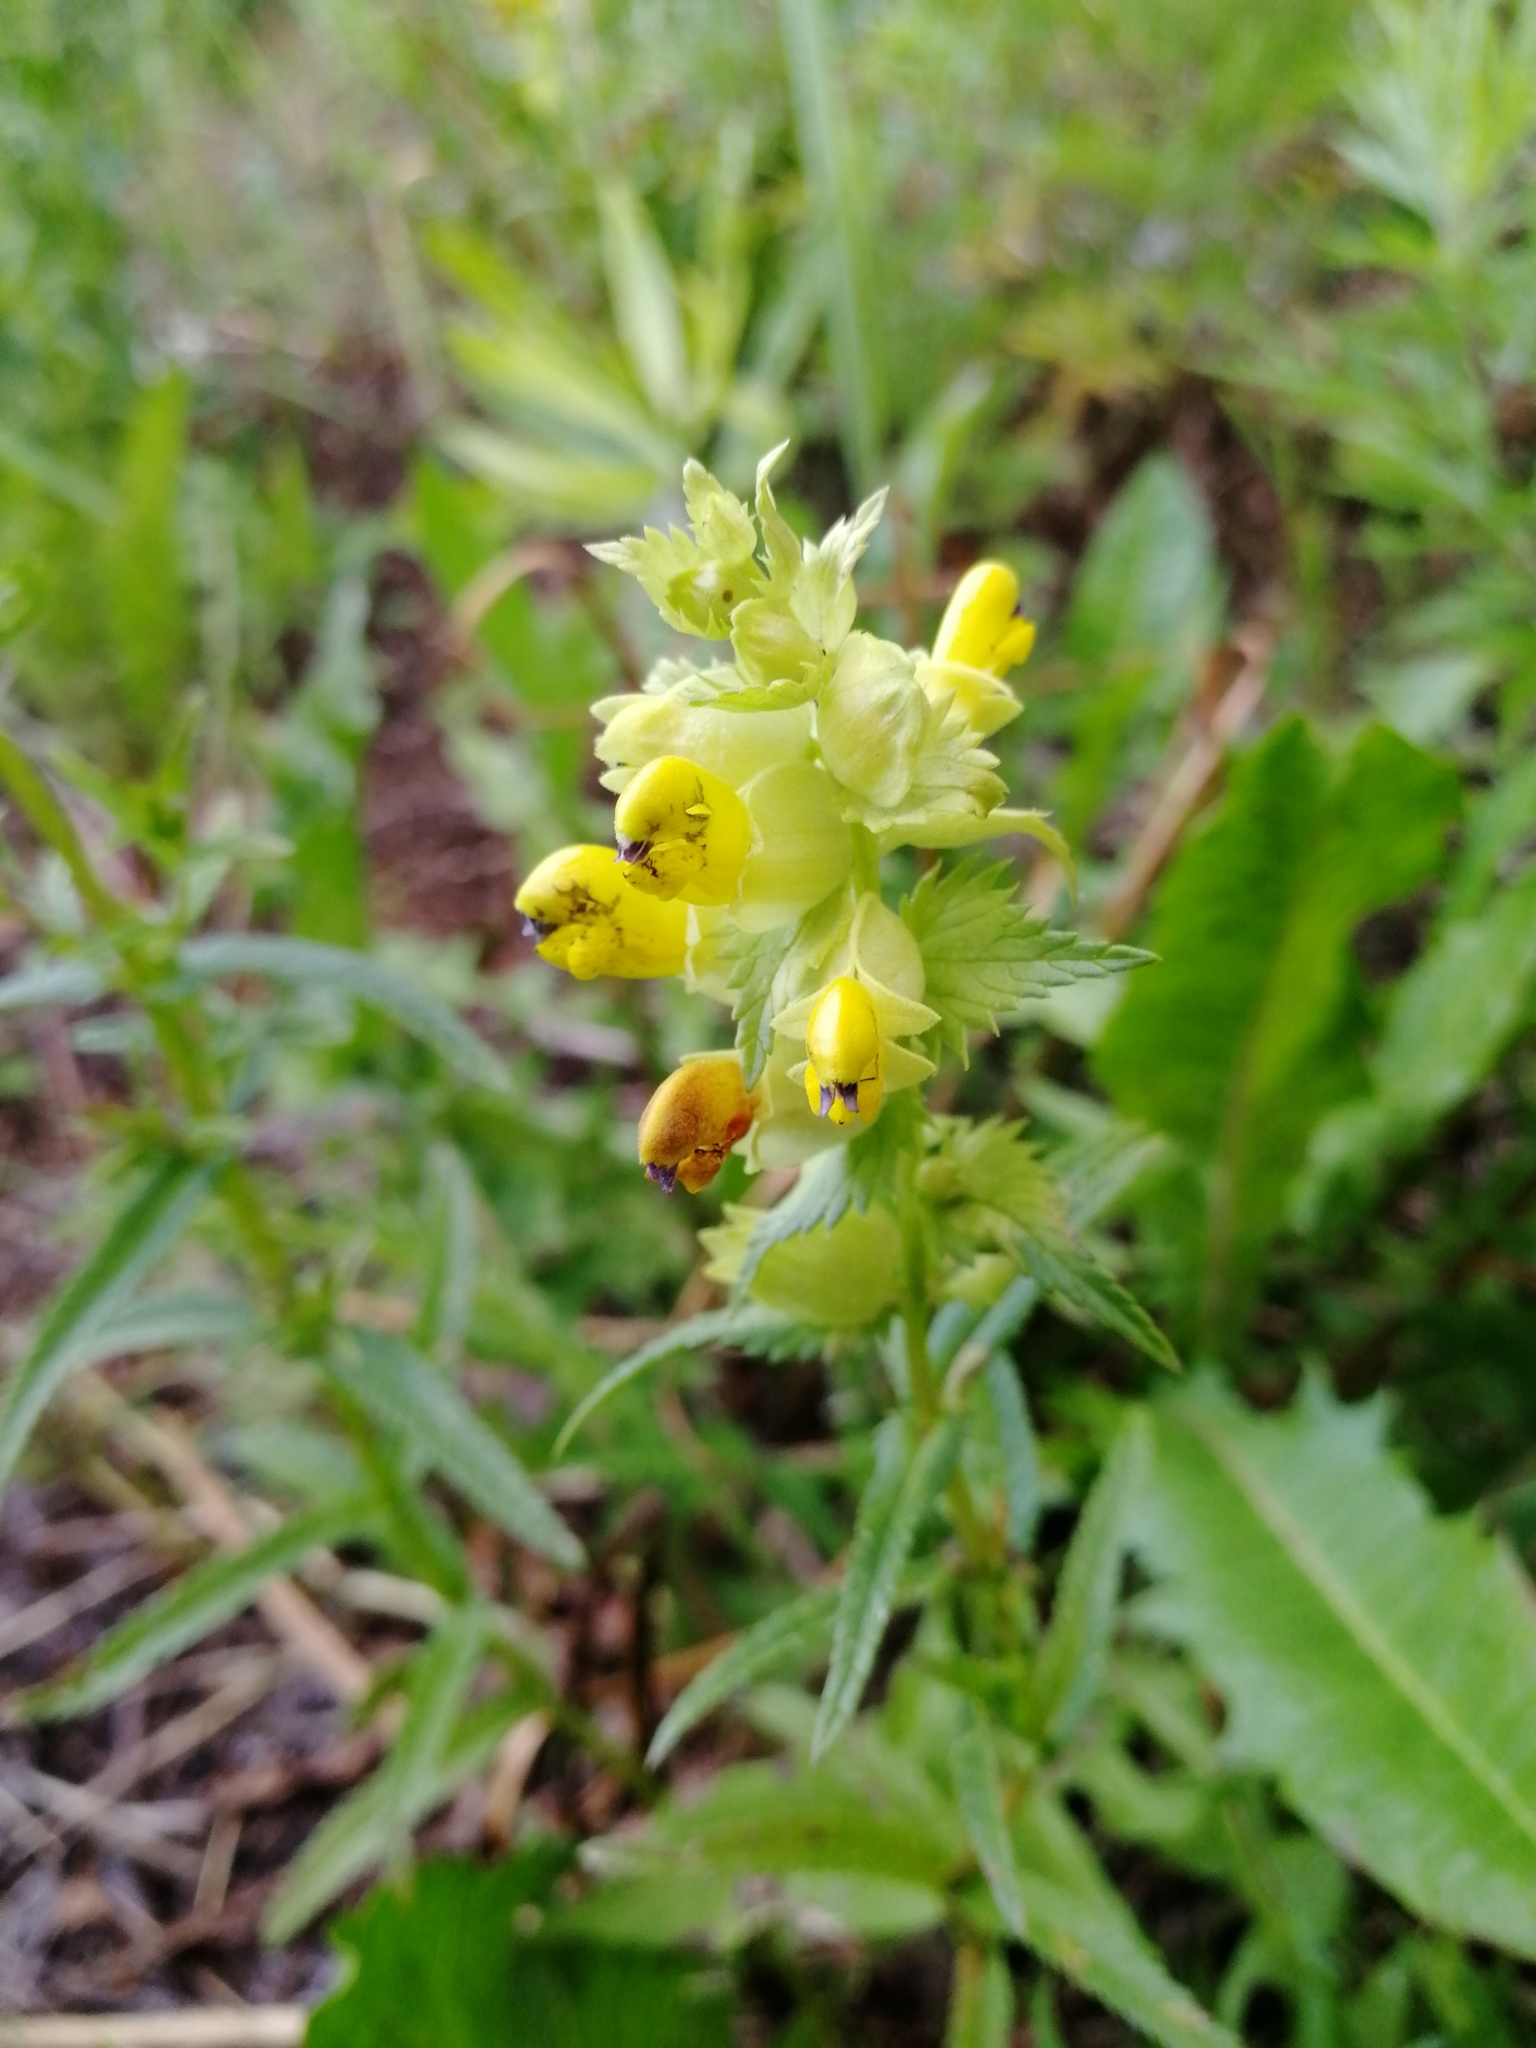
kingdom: Plantae
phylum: Tracheophyta
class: Magnoliopsida
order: Lamiales
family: Orobanchaceae
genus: Rhinanthus
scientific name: Rhinanthus minor
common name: Yellow-rattle
